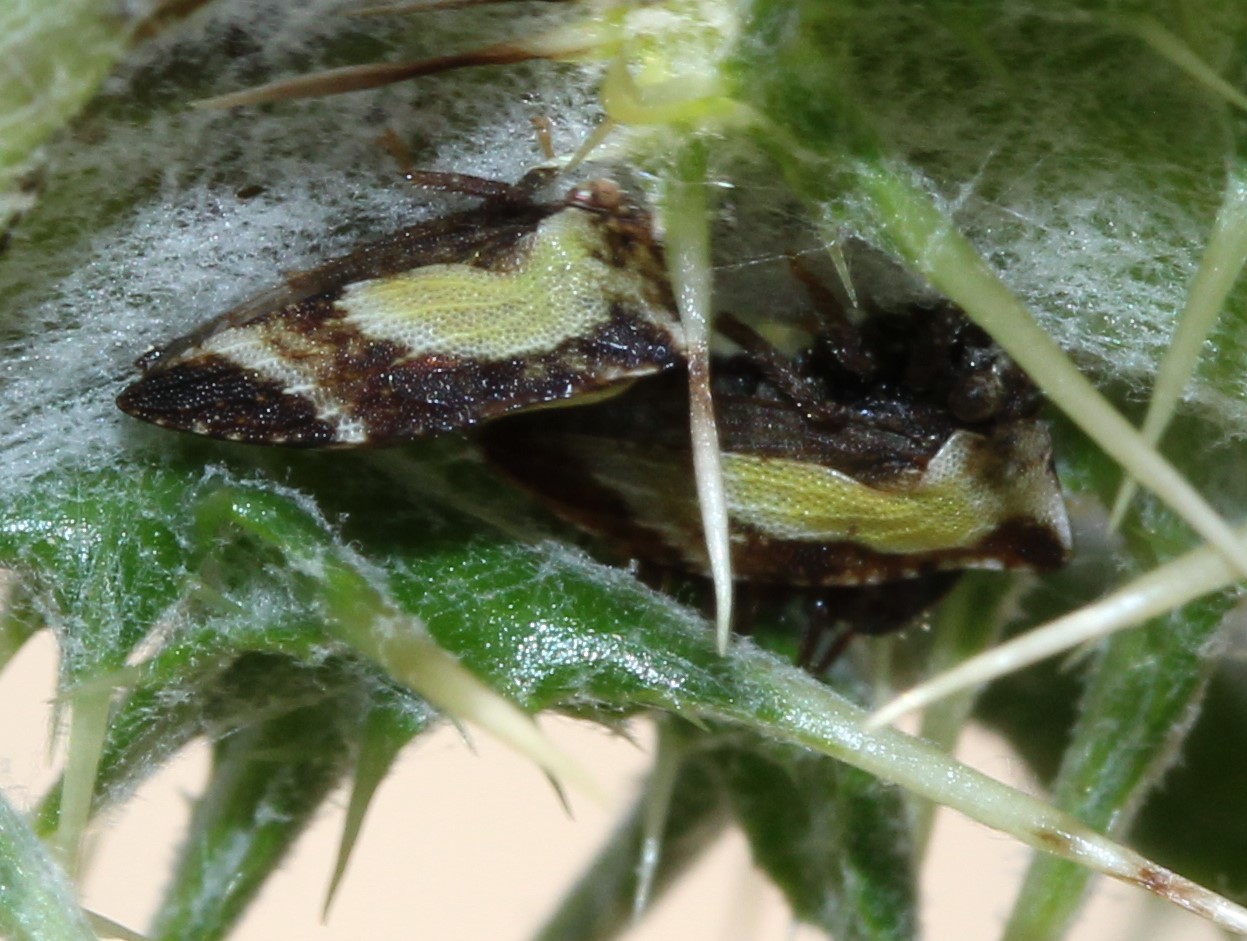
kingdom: Animalia
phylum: Arthropoda
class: Insecta
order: Hemiptera
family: Membracidae
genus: Publilia
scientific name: Publilia porrecta
